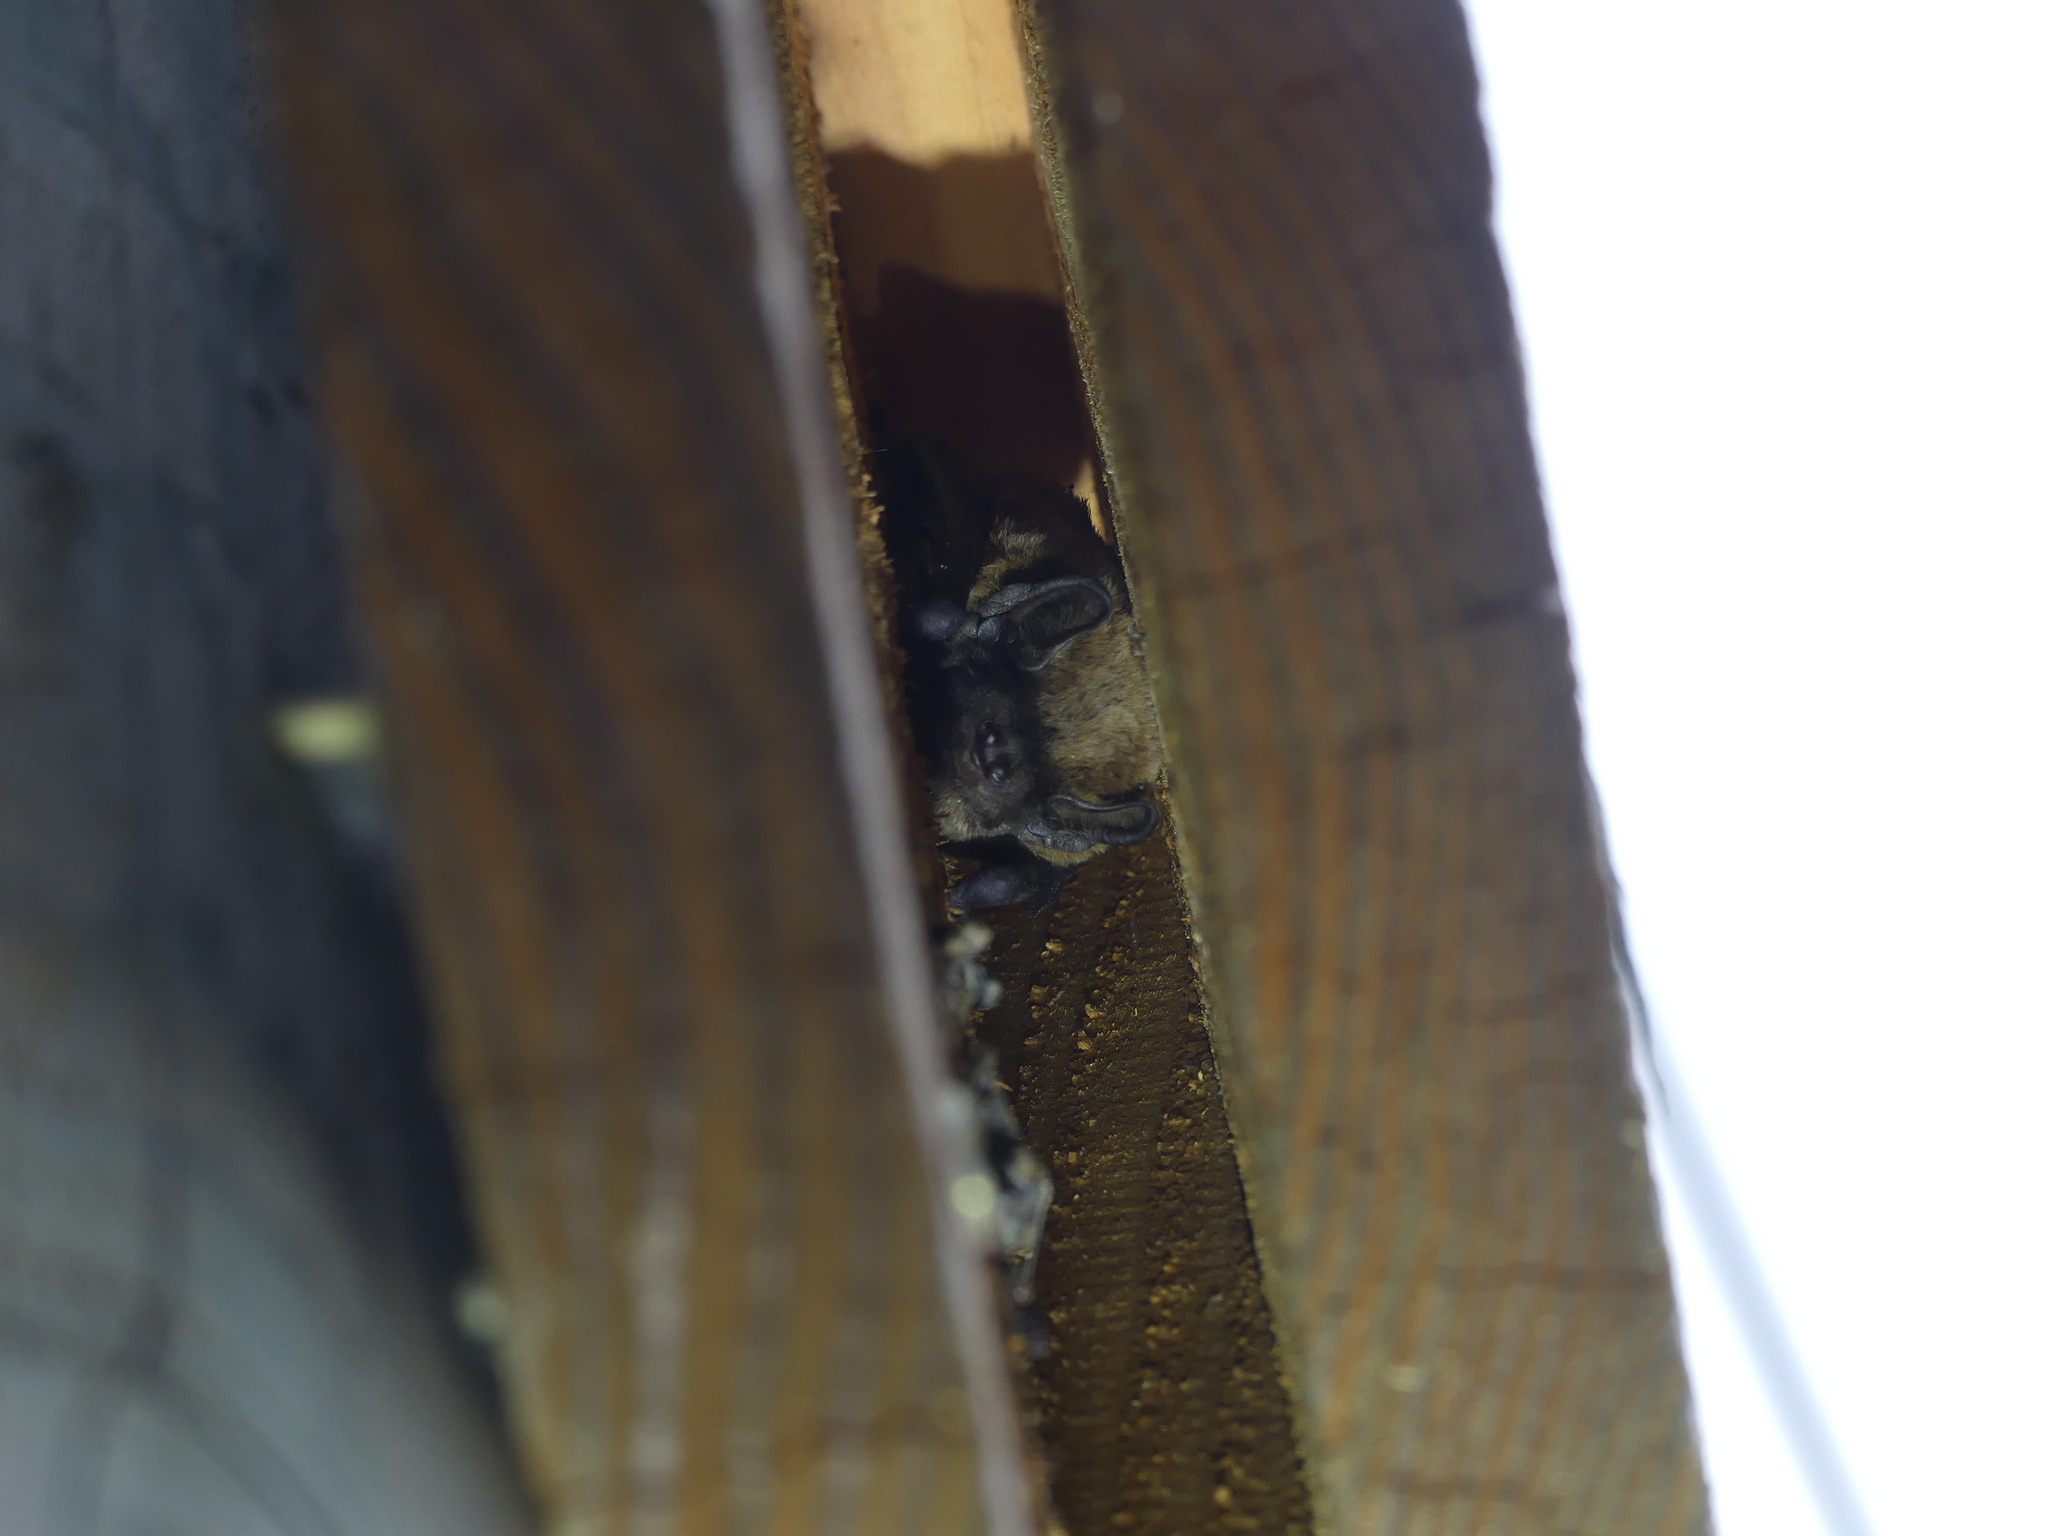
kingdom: Animalia
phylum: Chordata
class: Mammalia
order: Chiroptera
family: Vespertilionidae
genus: Nyctalus
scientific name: Nyctalus leisleri
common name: Lesser noctule
